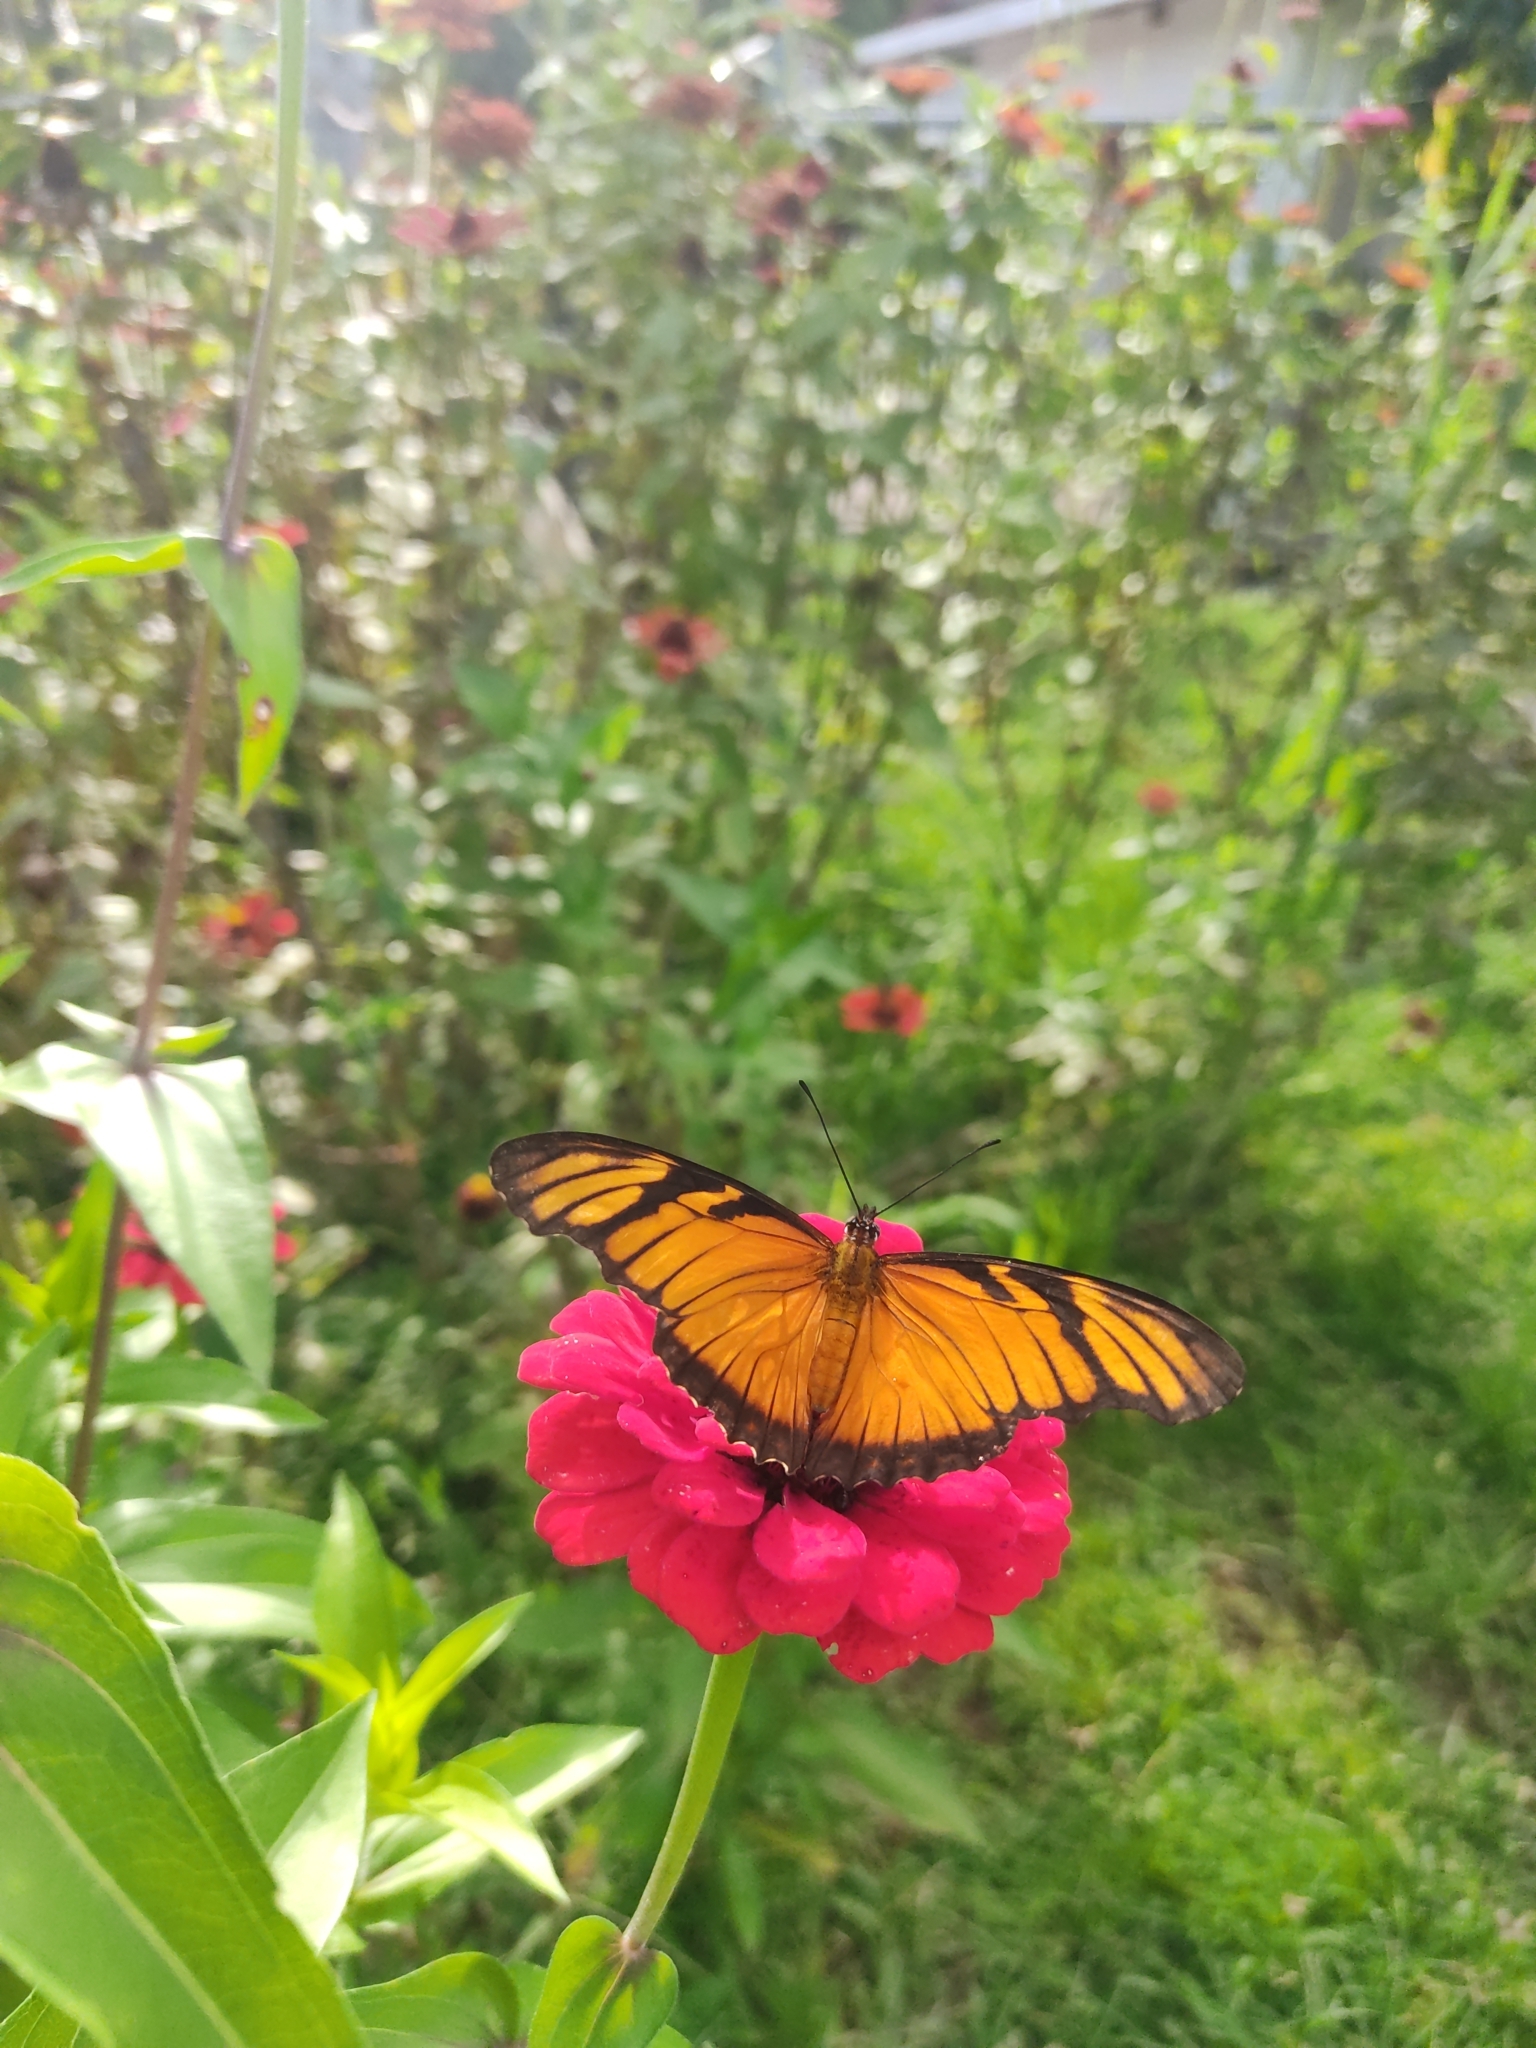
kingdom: Animalia
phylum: Arthropoda
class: Insecta
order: Lepidoptera
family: Nymphalidae
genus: Dione
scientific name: Dione juno
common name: Juno silverspot
